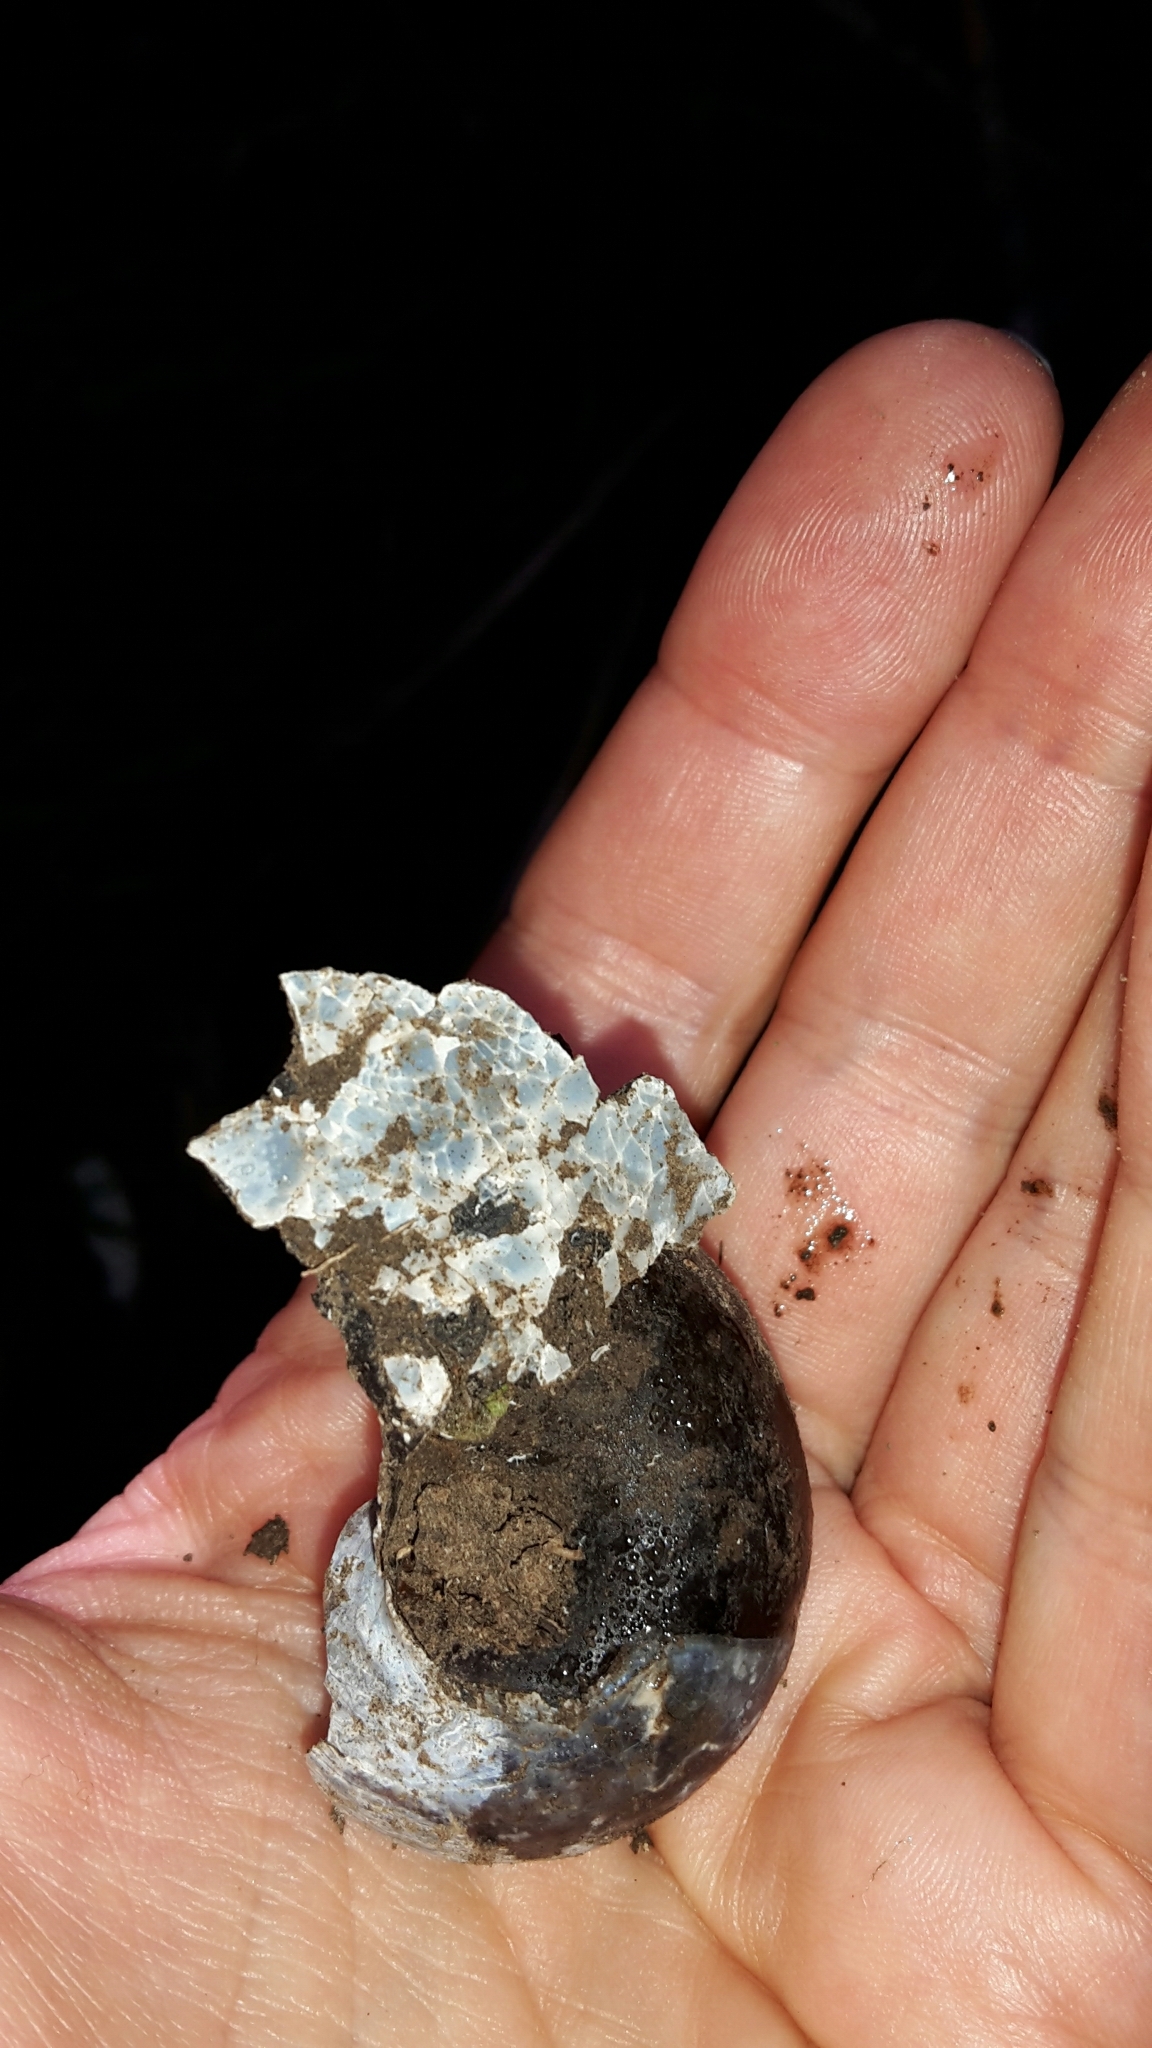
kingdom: Animalia
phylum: Mollusca
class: Gastropoda
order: Stylommatophora
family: Rhytididae
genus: Paryphanta
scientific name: Paryphanta busbyi
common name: Kauri snail
